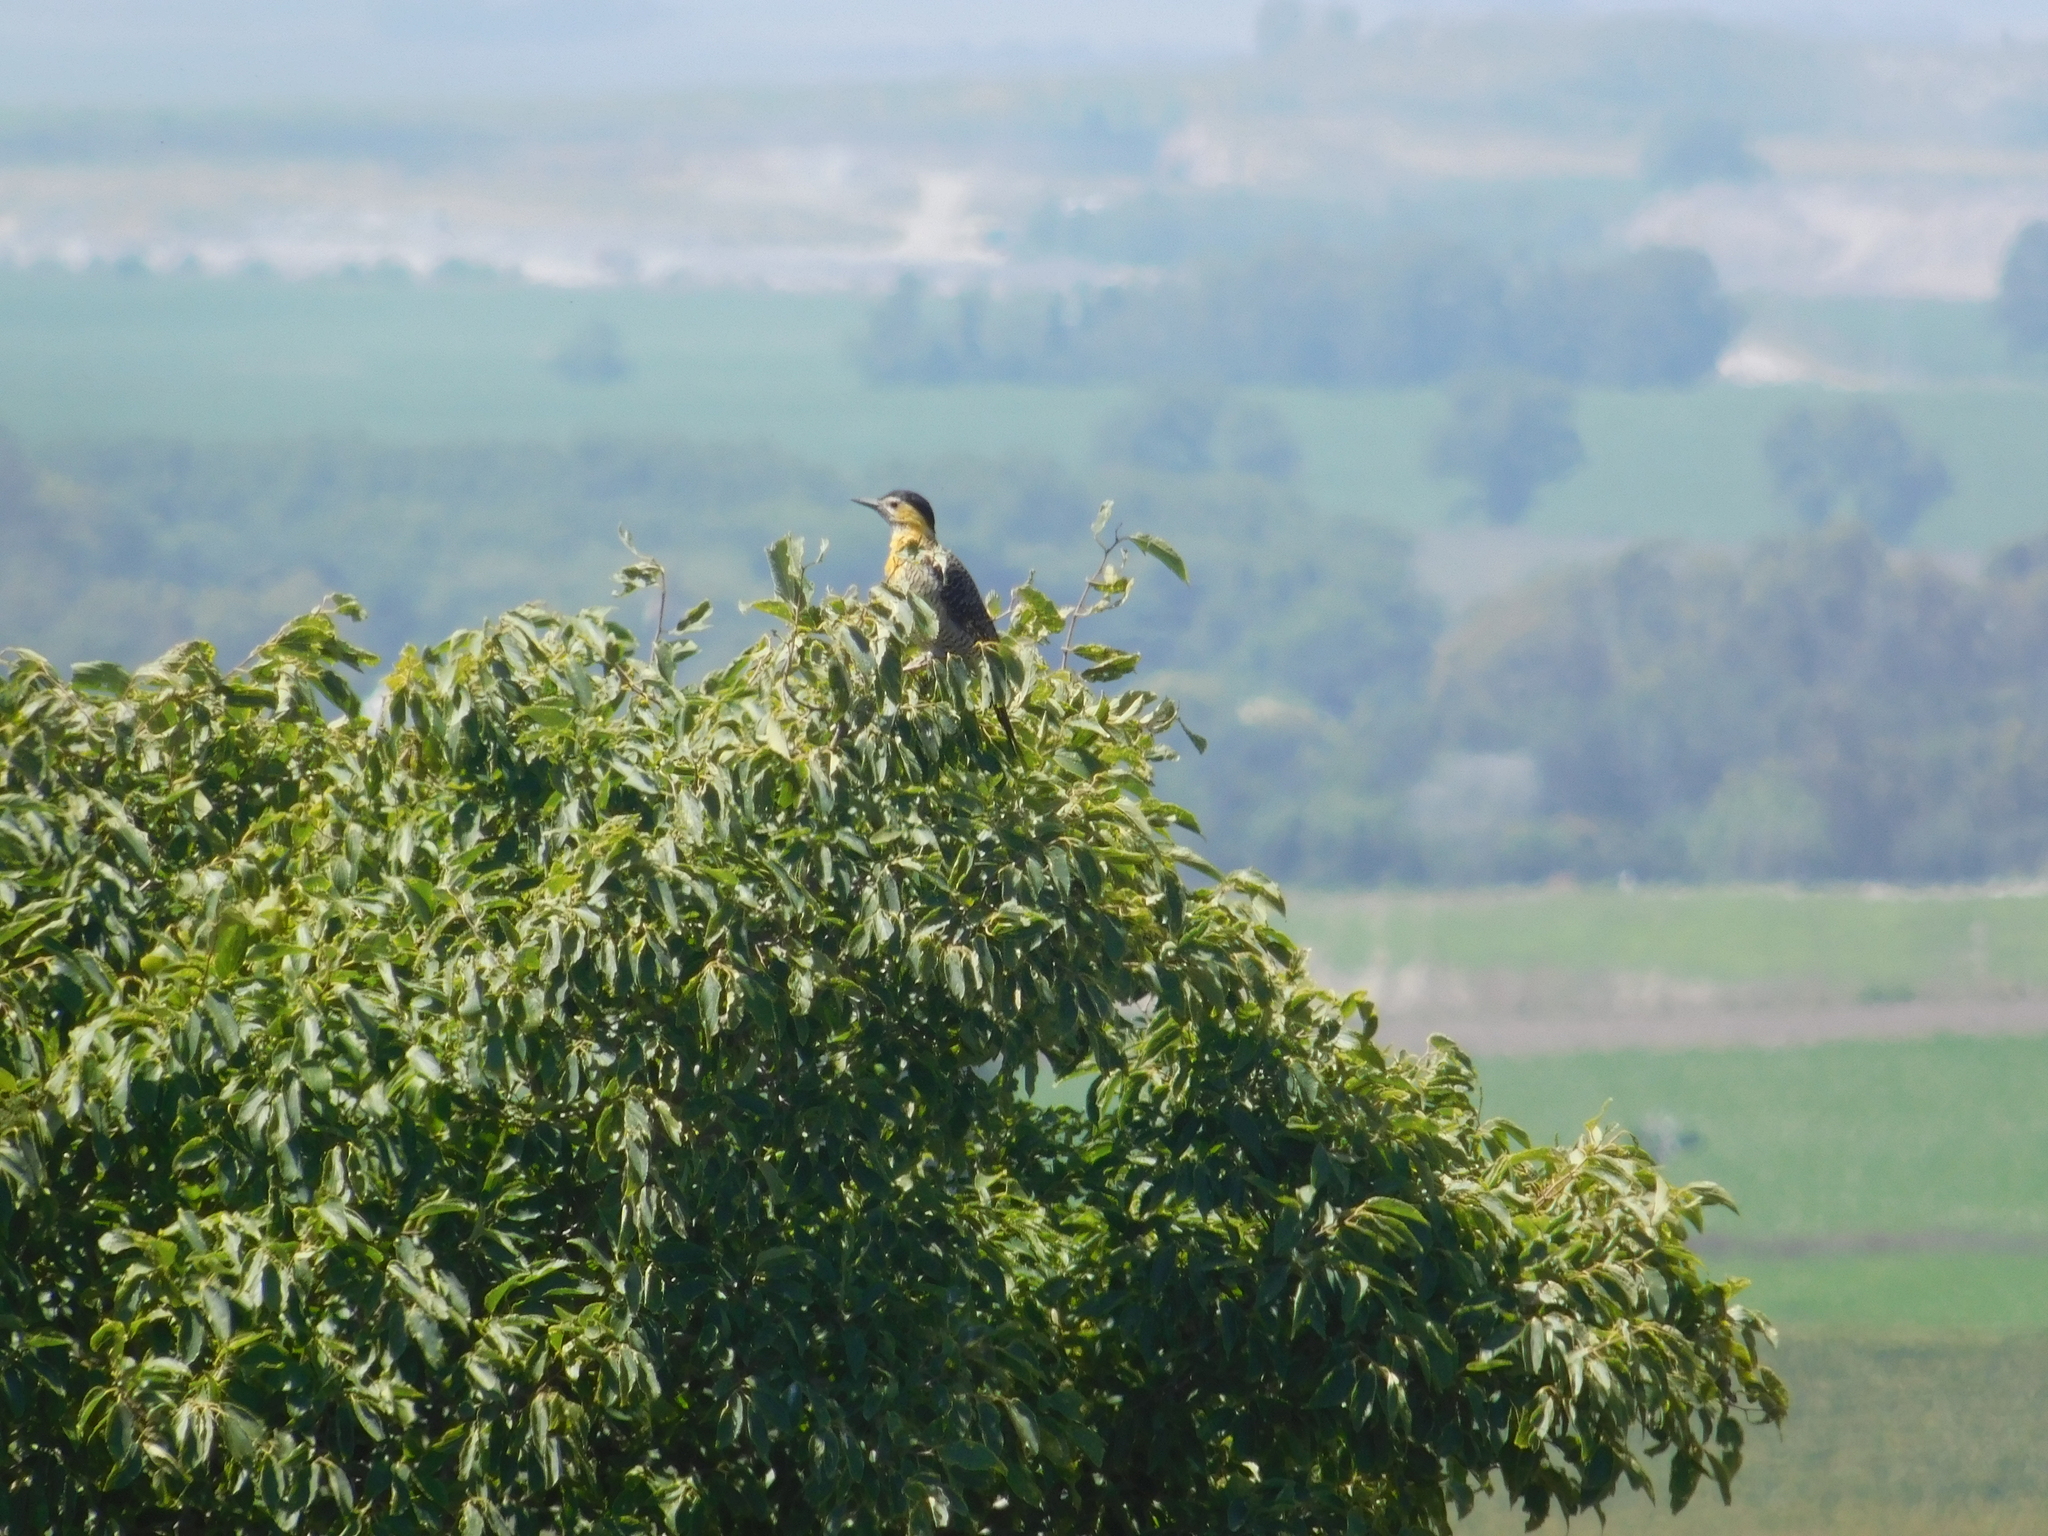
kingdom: Animalia
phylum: Chordata
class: Aves
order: Piciformes
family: Picidae
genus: Colaptes
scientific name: Colaptes campestris
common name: Campo flicker
